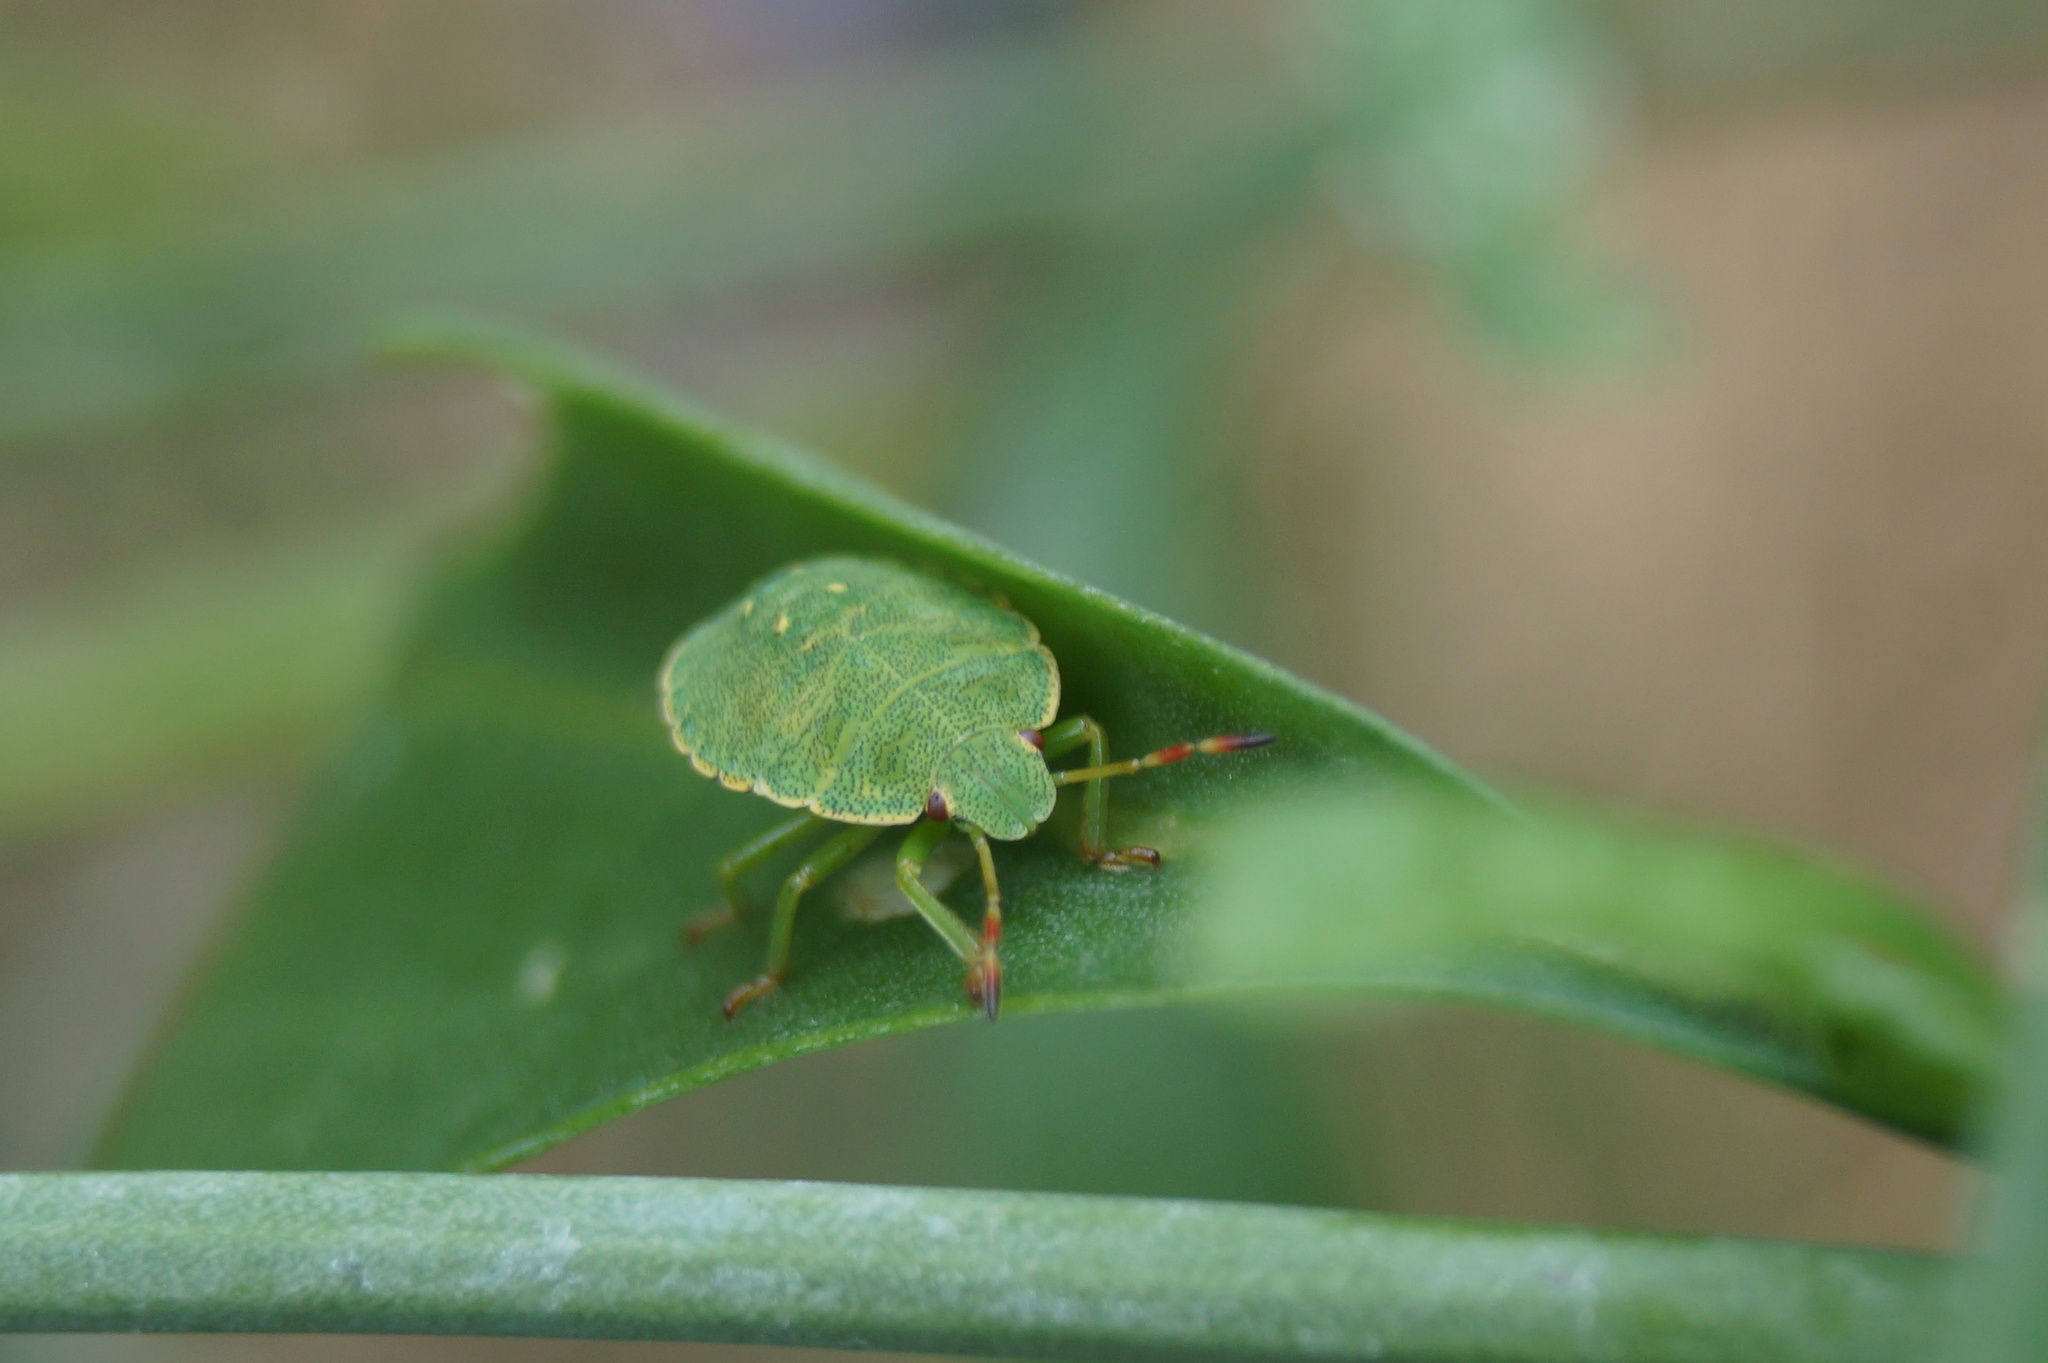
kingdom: Animalia
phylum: Arthropoda
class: Insecta
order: Hemiptera
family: Pentatomidae
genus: Palomena
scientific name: Palomena prasina
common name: Green shieldbug
